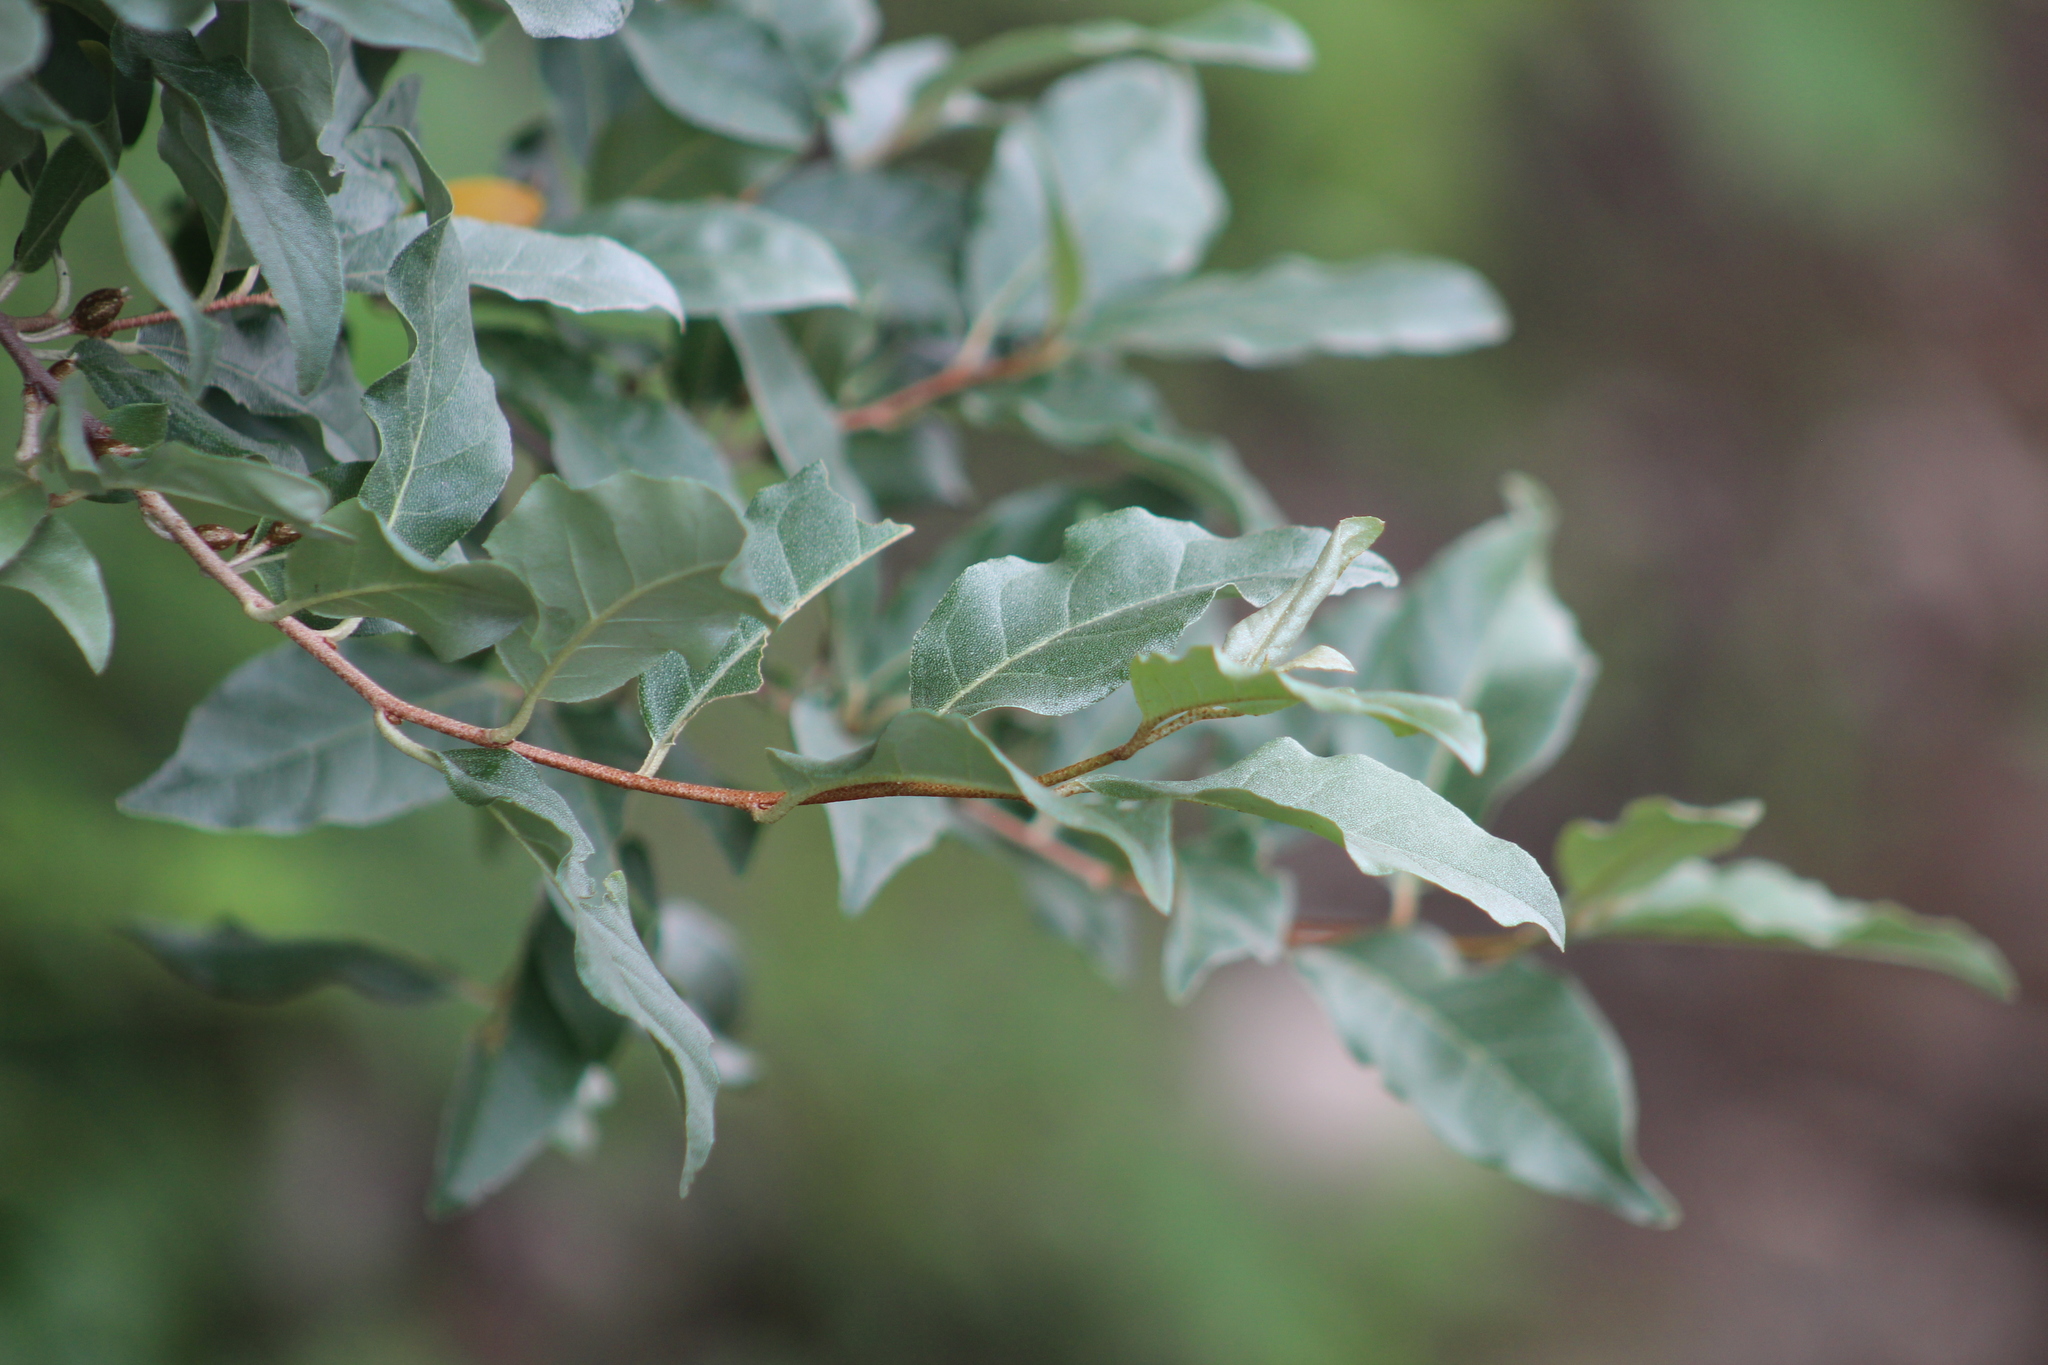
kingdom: Plantae
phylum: Tracheophyta
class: Magnoliopsida
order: Rosales
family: Elaeagnaceae
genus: Elaeagnus
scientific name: Elaeagnus umbellata
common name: Autumn olive
